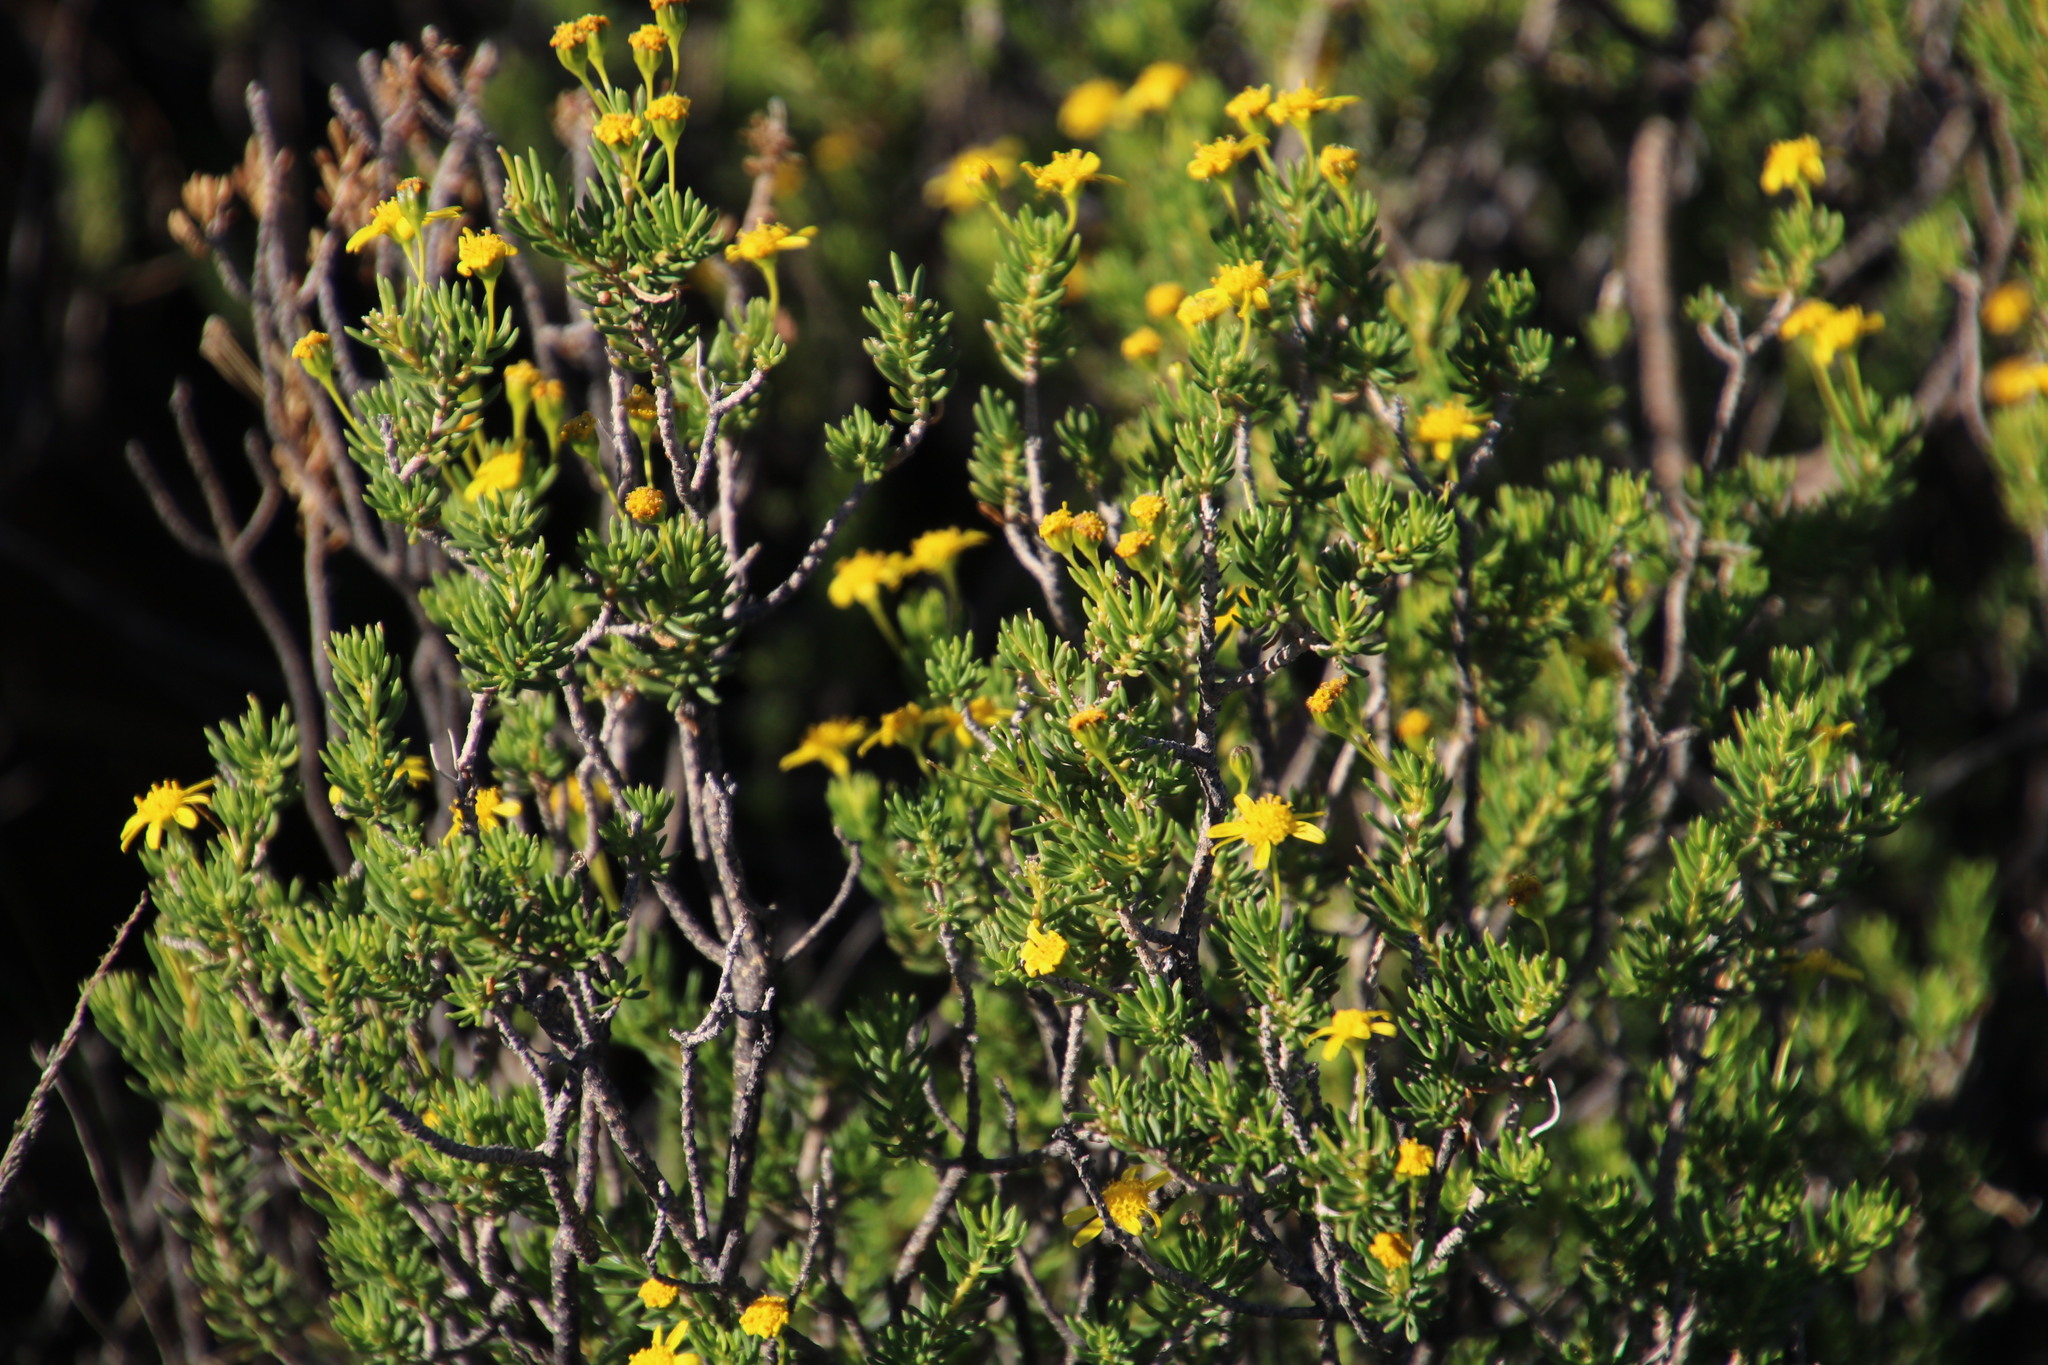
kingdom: Plantae
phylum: Tracheophyta
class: Magnoliopsida
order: Asterales
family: Asteraceae
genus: Euryops
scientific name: Euryops nodosus
